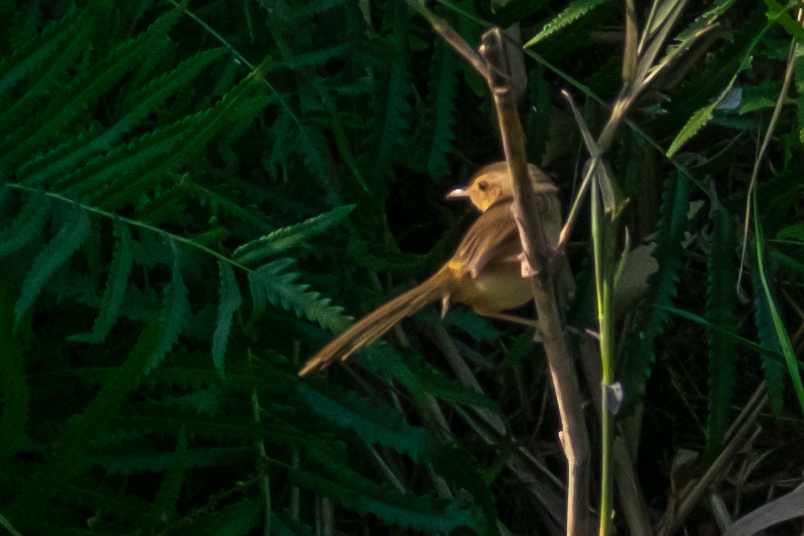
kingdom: Animalia
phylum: Chordata
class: Aves
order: Passeriformes
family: Cisticolidae
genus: Prinia
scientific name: Prinia inornata
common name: Plain prinia
